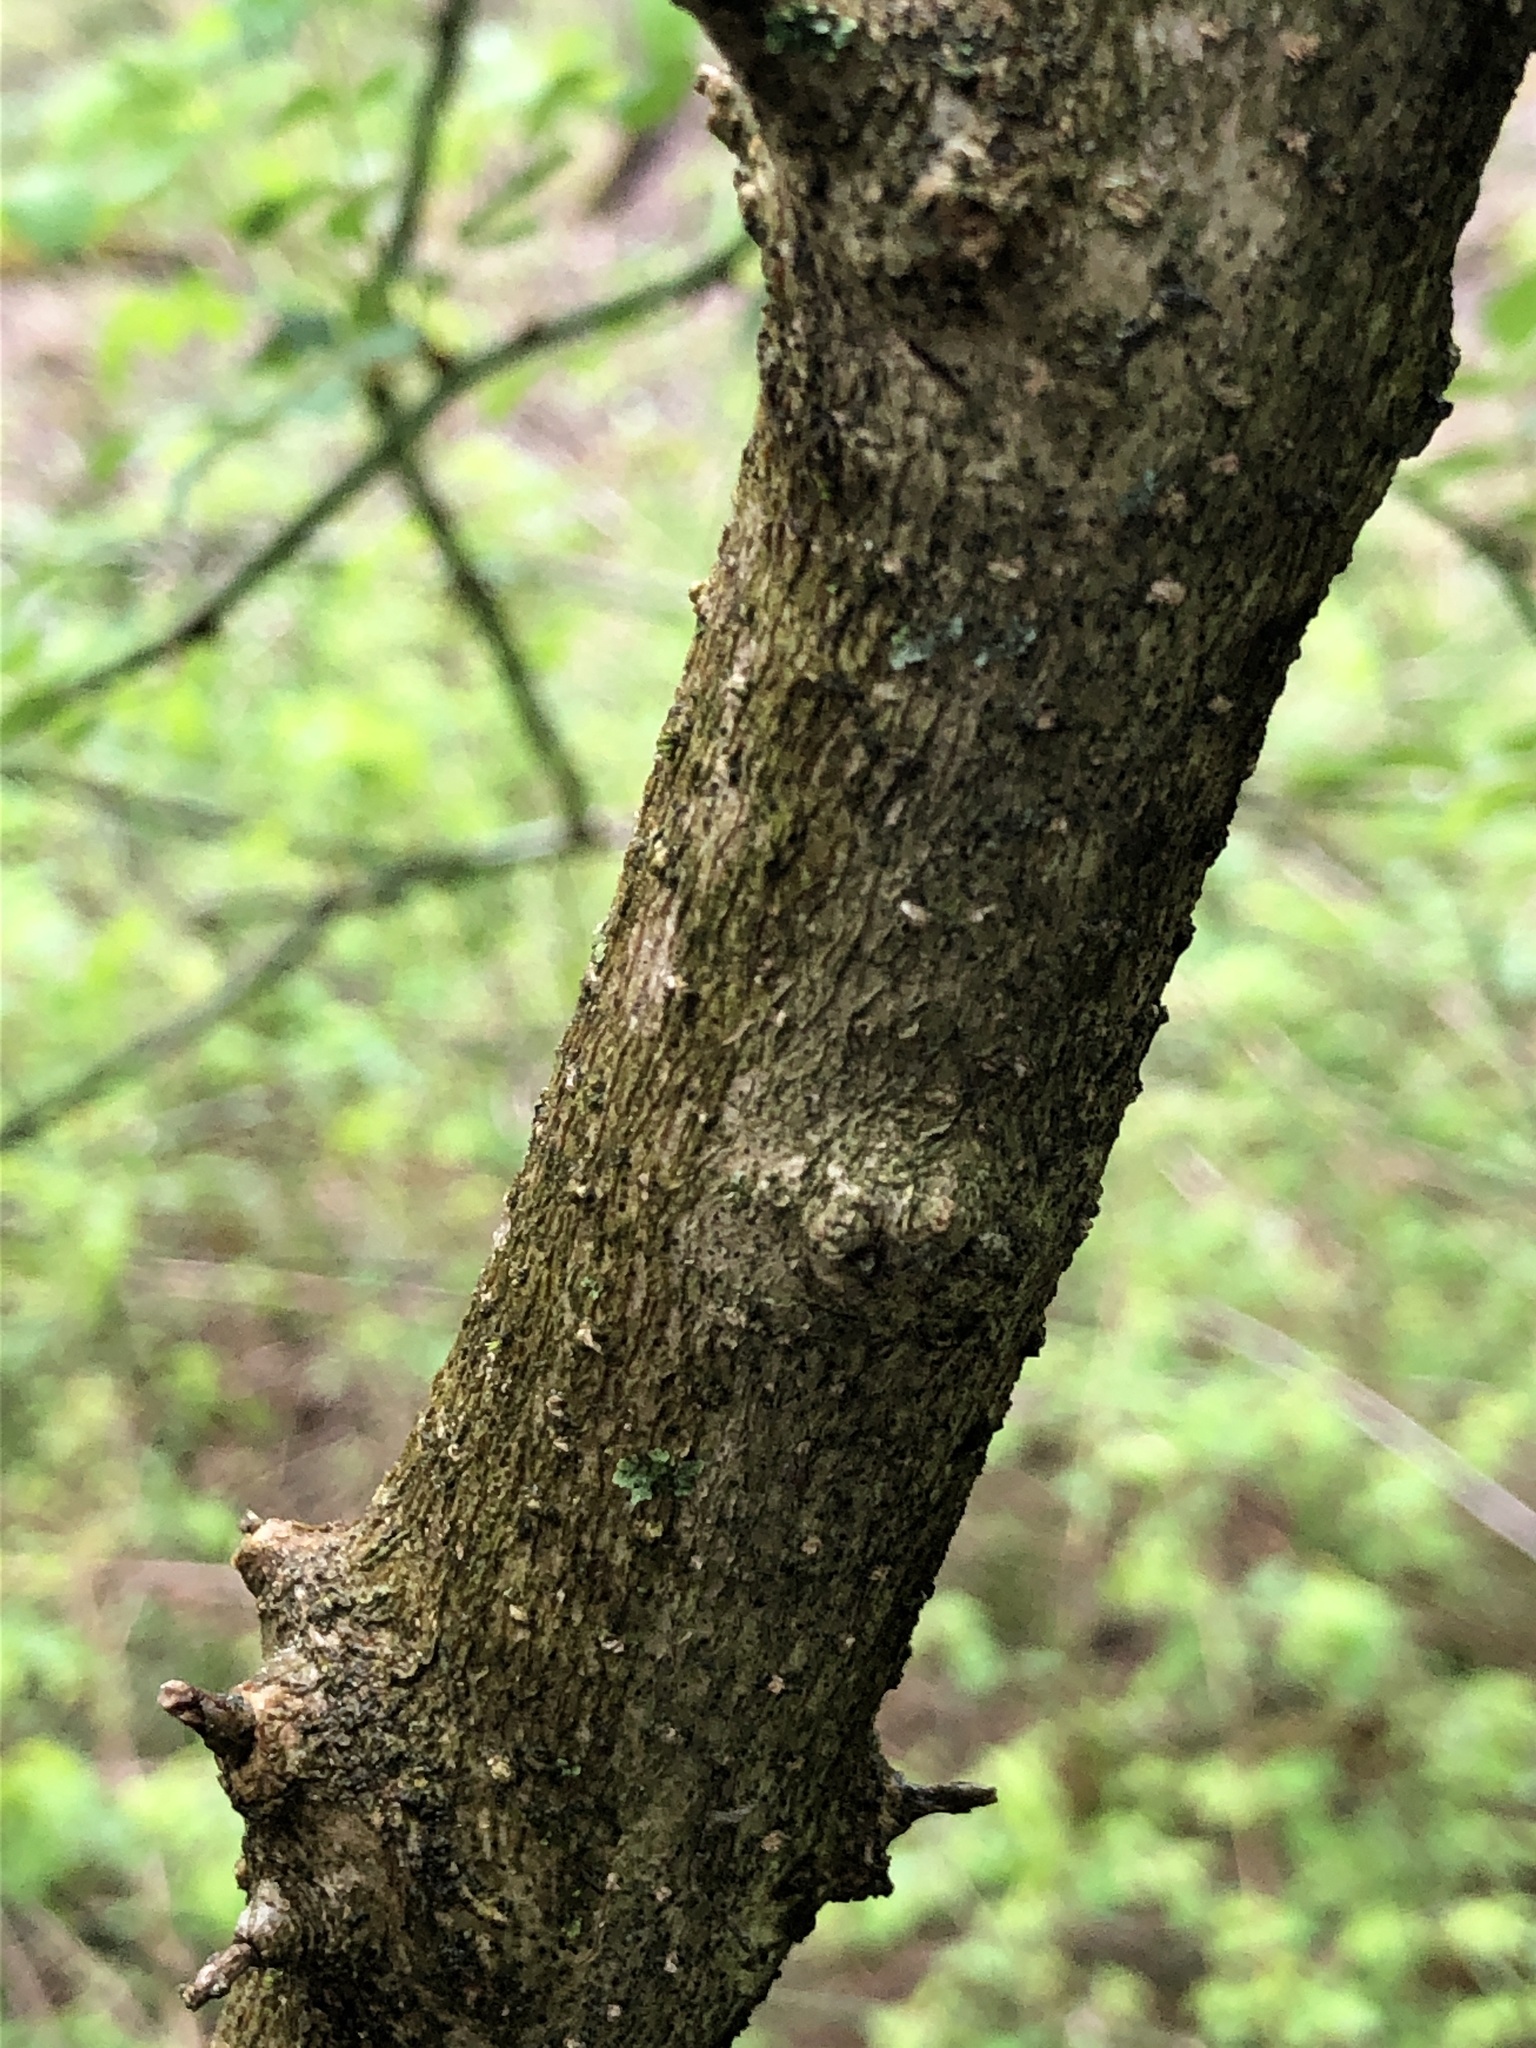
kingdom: Plantae
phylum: Tracheophyta
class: Magnoliopsida
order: Brassicales
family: Brassicaceae
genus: Alliaria
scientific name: Alliaria petiolata
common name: Garlic mustard
